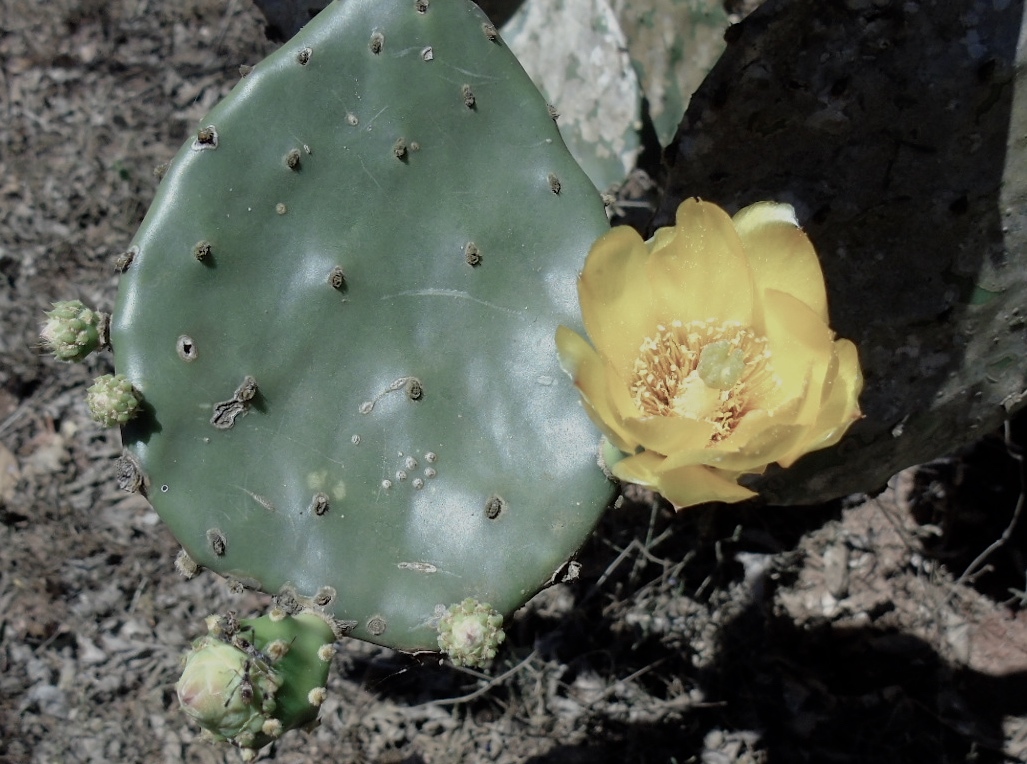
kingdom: Plantae
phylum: Tracheophyta
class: Magnoliopsida
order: Caryophyllales
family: Cactaceae
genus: Opuntia
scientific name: Opuntia decumbens
